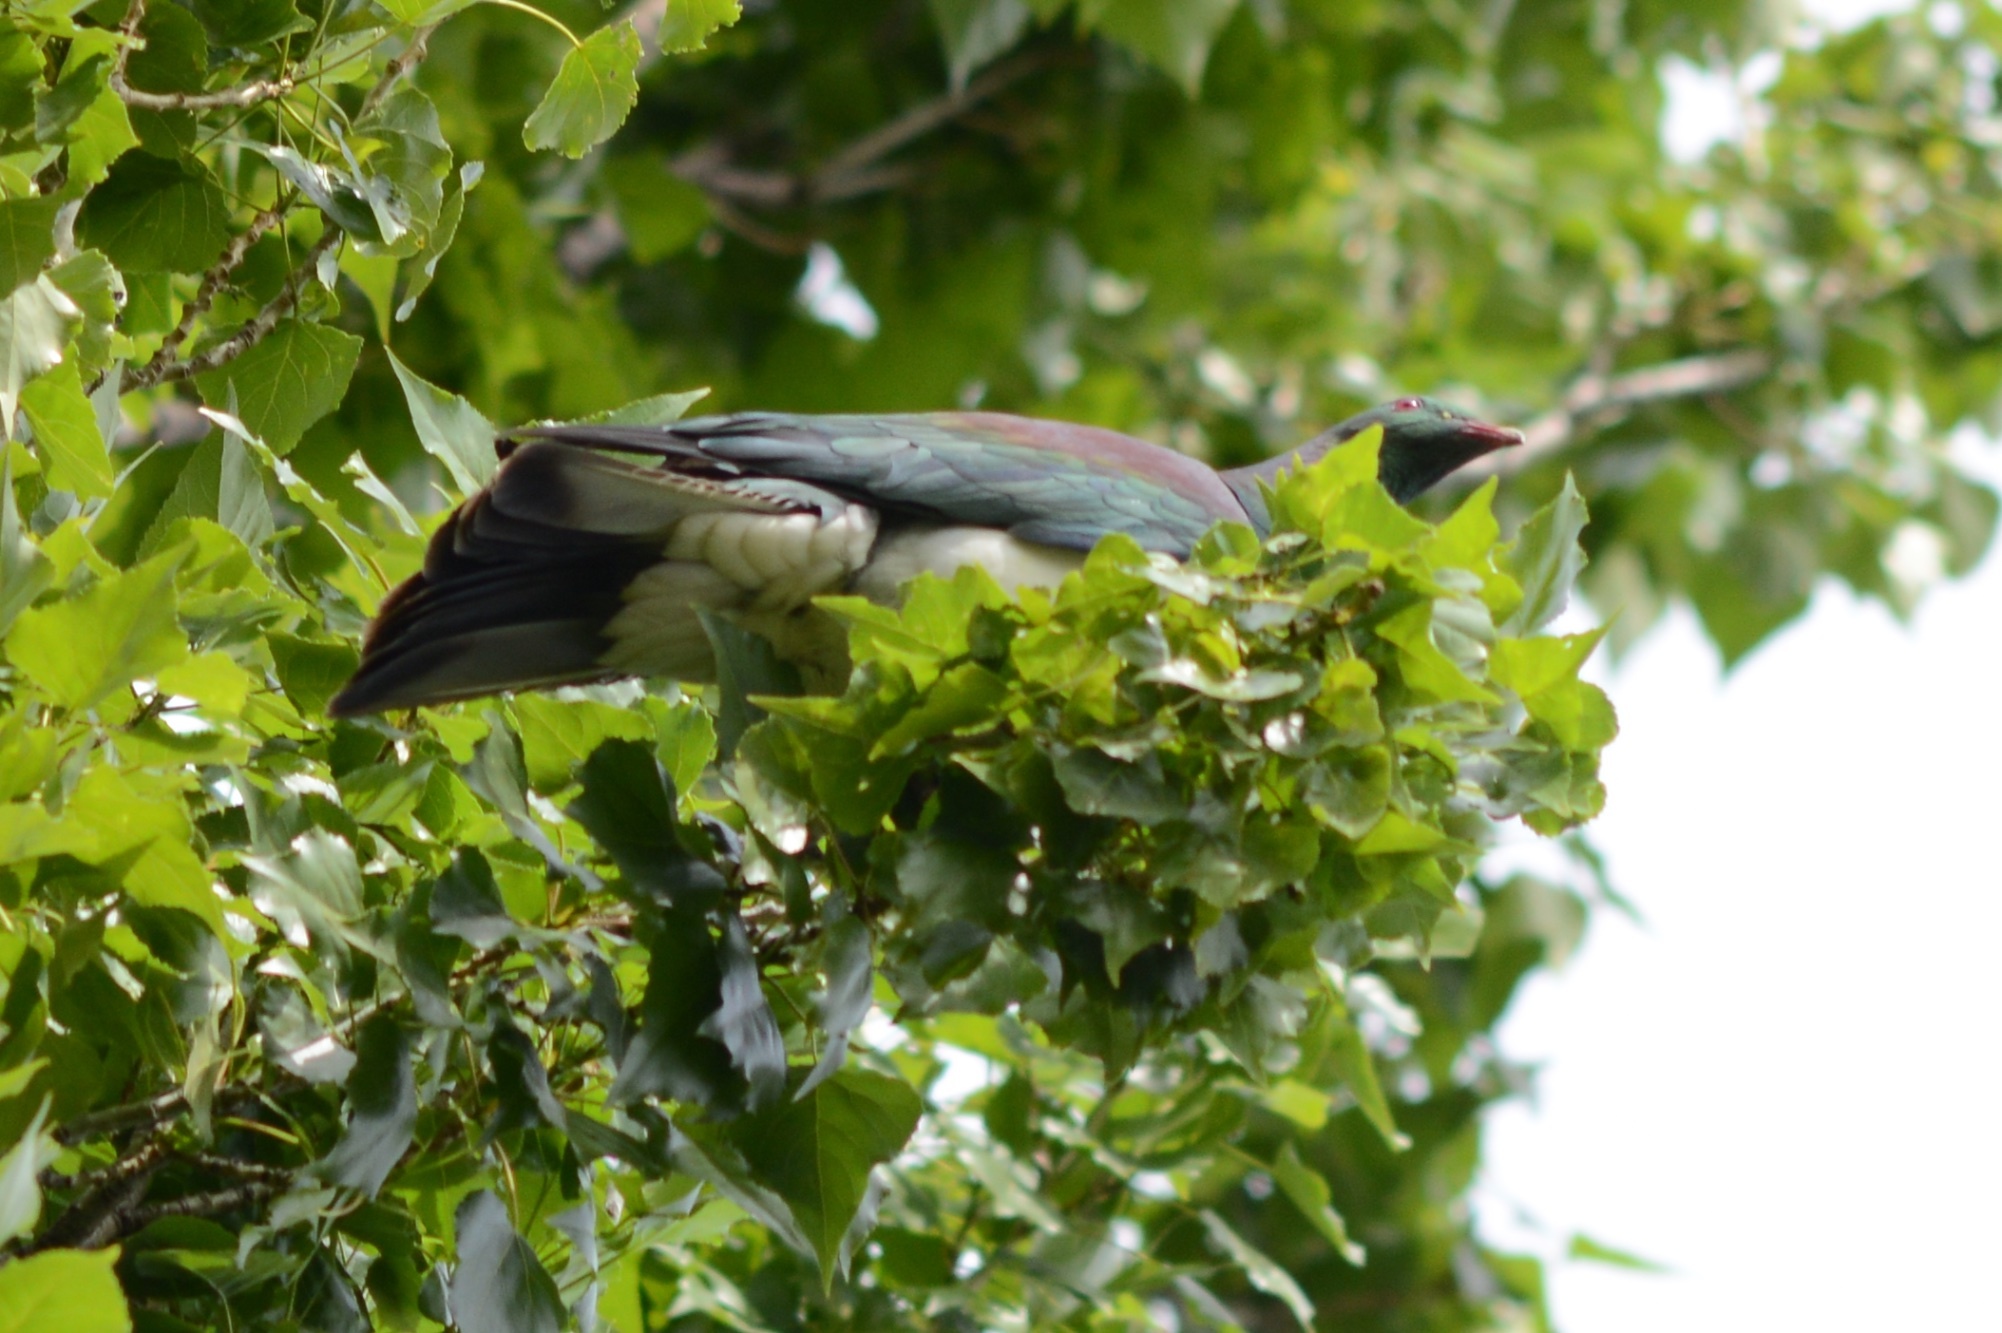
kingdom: Animalia
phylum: Chordata
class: Aves
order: Columbiformes
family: Columbidae
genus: Hemiphaga
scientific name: Hemiphaga novaeseelandiae
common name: New zealand pigeon
